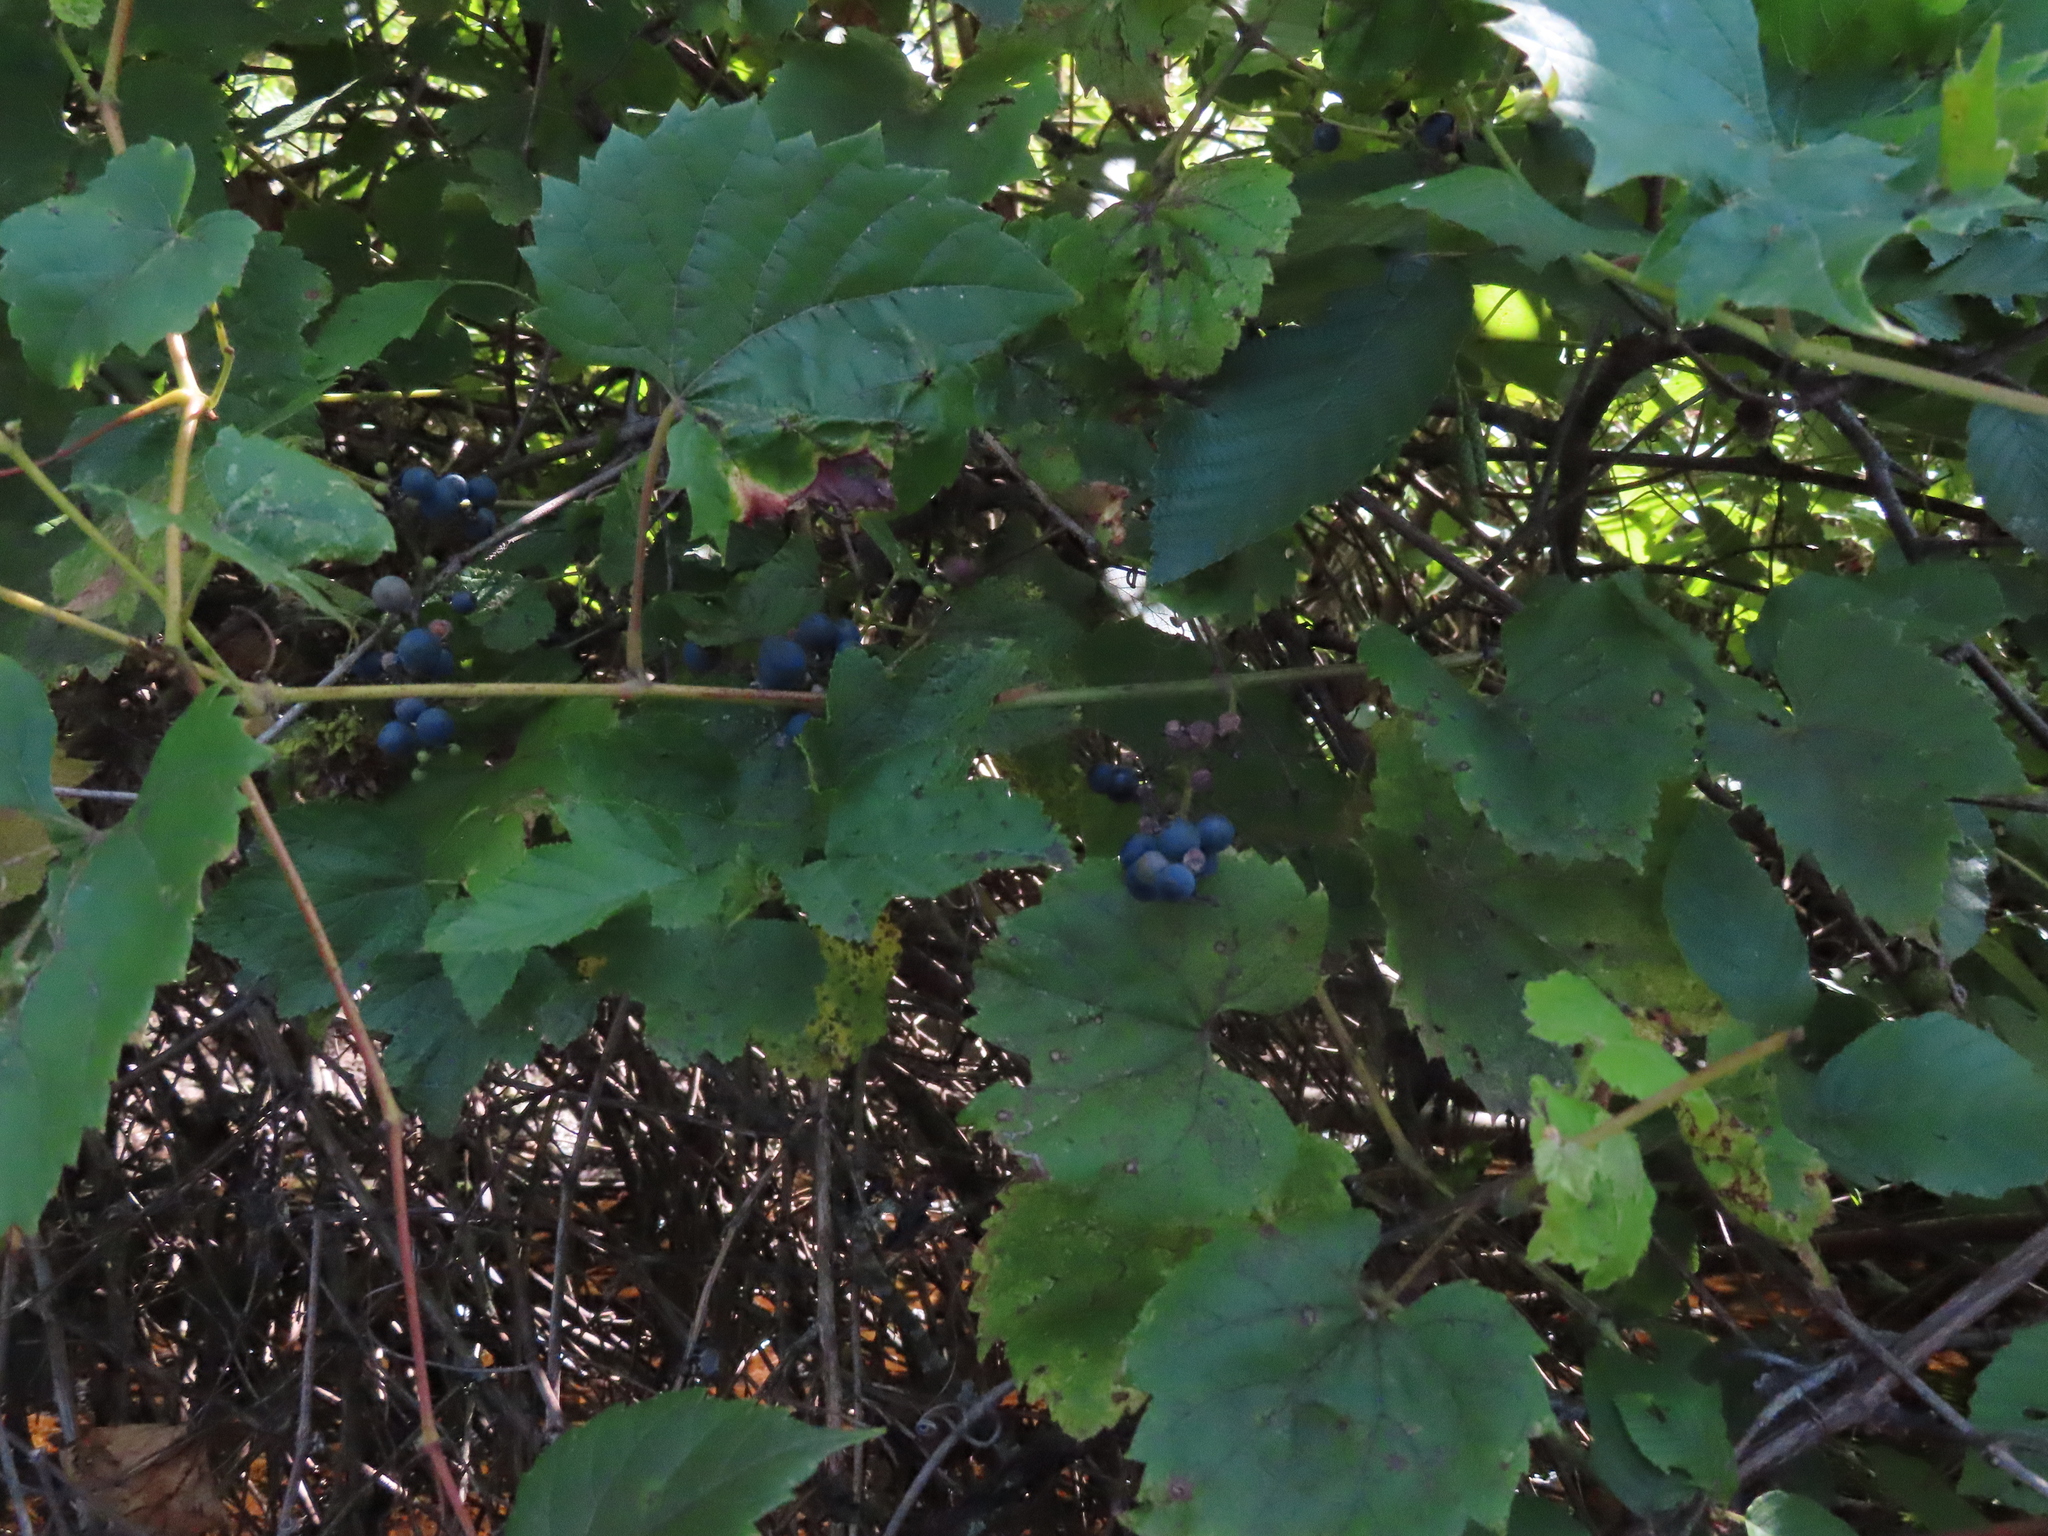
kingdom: Plantae
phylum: Tracheophyta
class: Magnoliopsida
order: Vitales
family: Vitaceae
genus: Vitis
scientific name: Vitis riparia
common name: Frost grape
